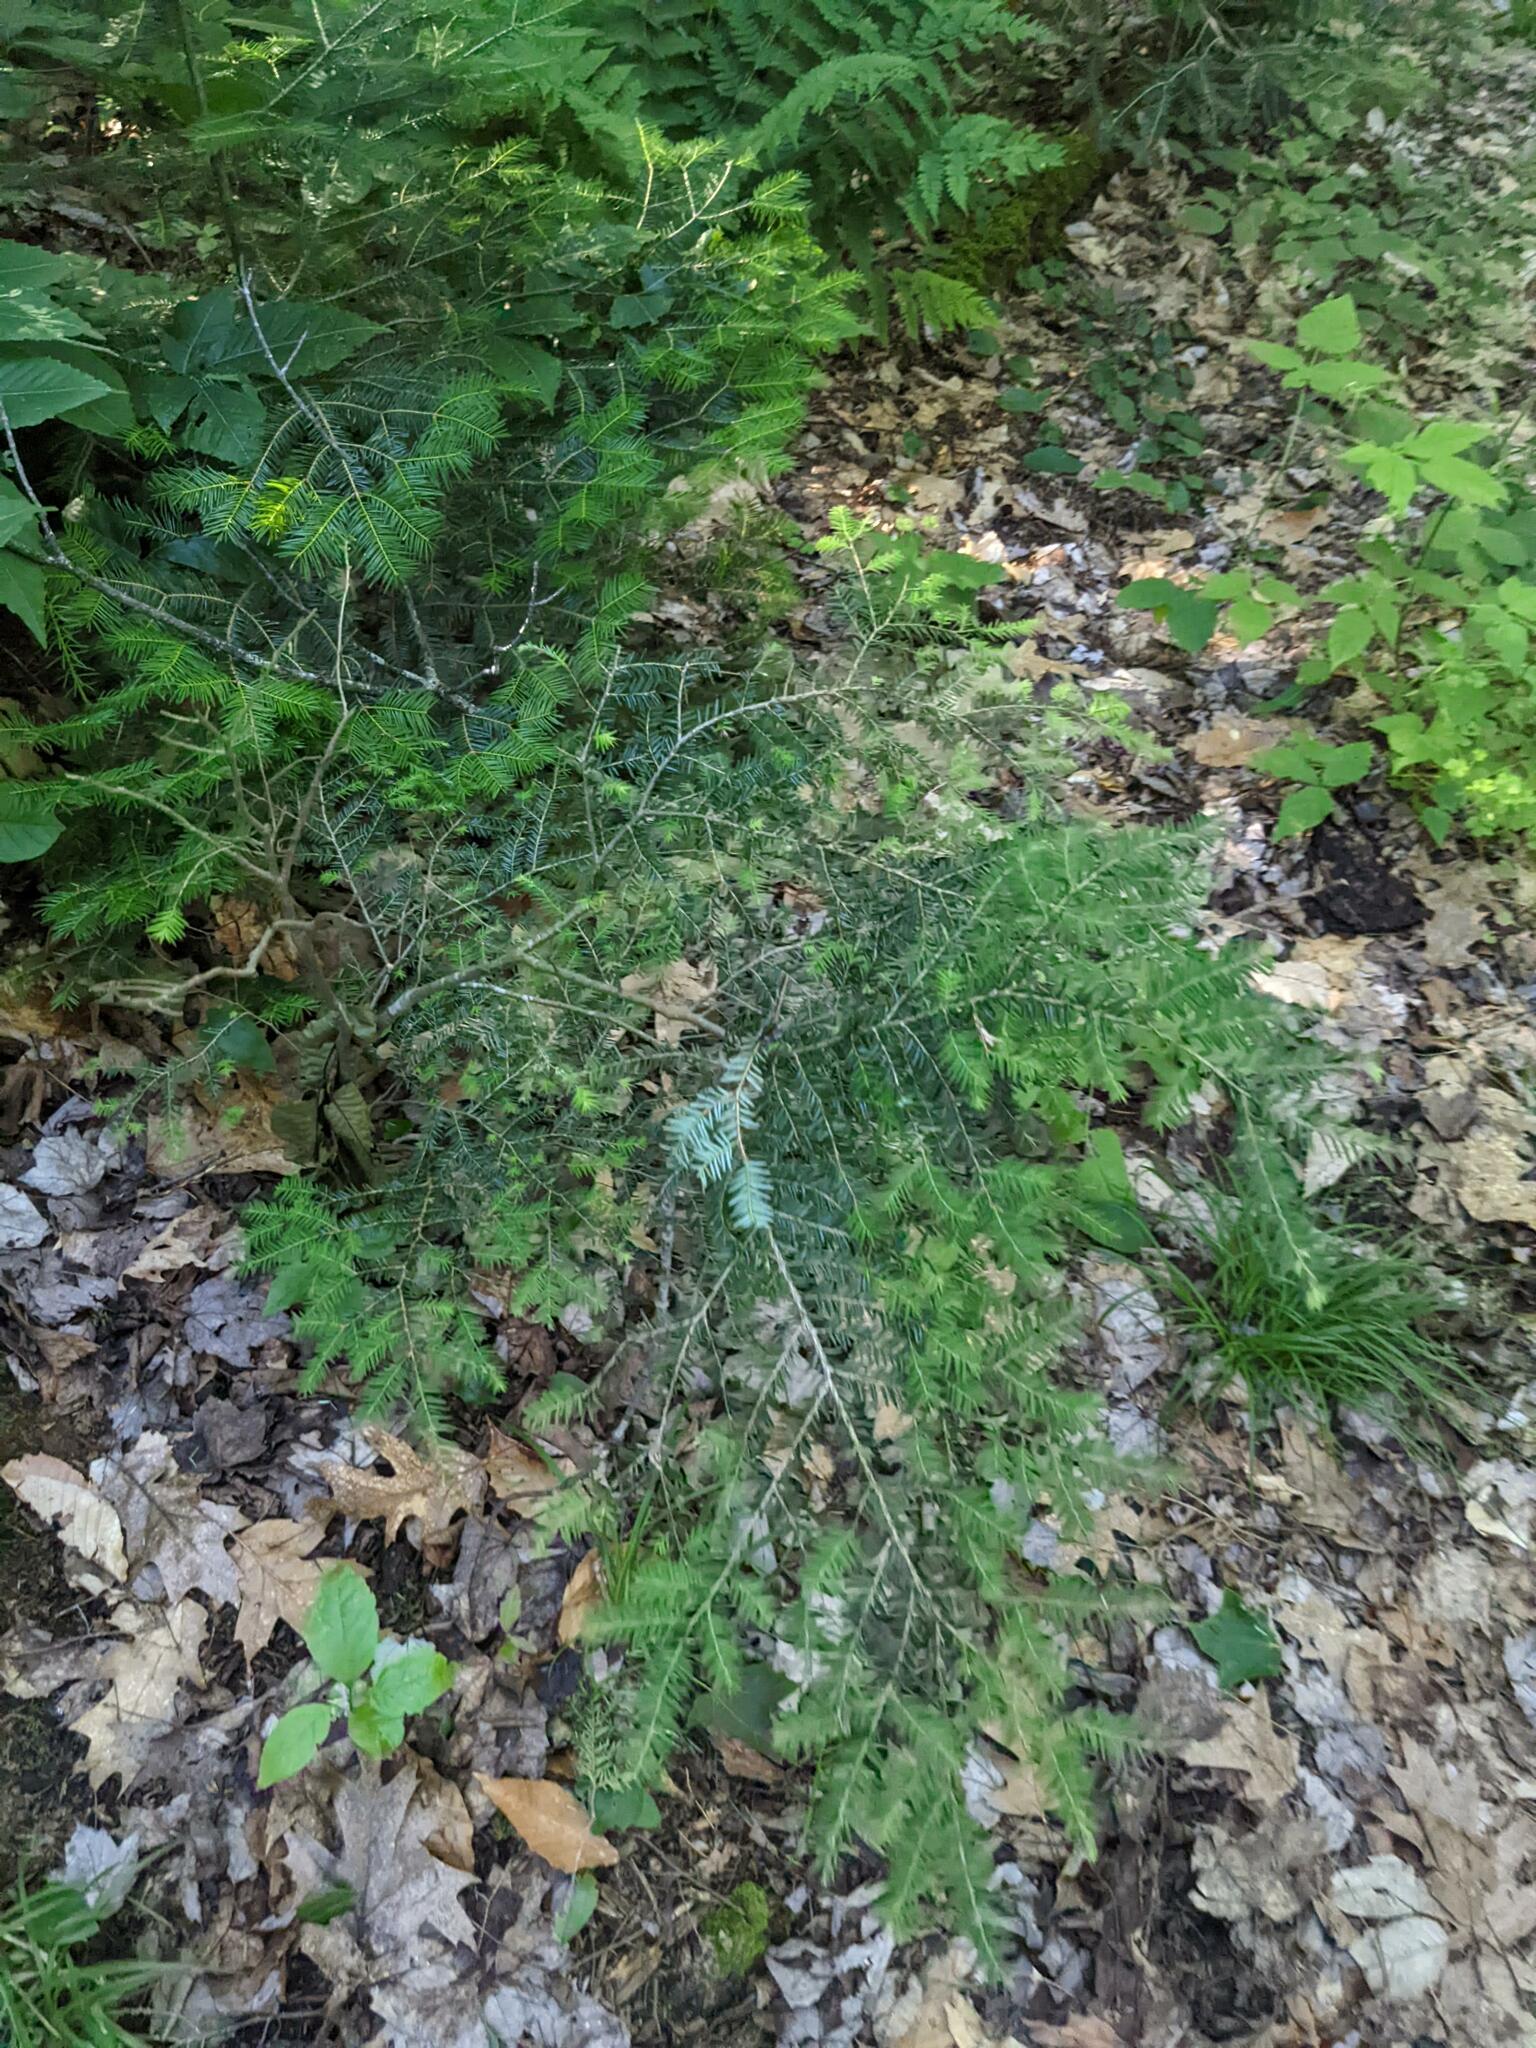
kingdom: Plantae
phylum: Tracheophyta
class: Pinopsida
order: Pinales
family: Pinaceae
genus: Tsuga
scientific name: Tsuga canadensis
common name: Eastern hemlock
